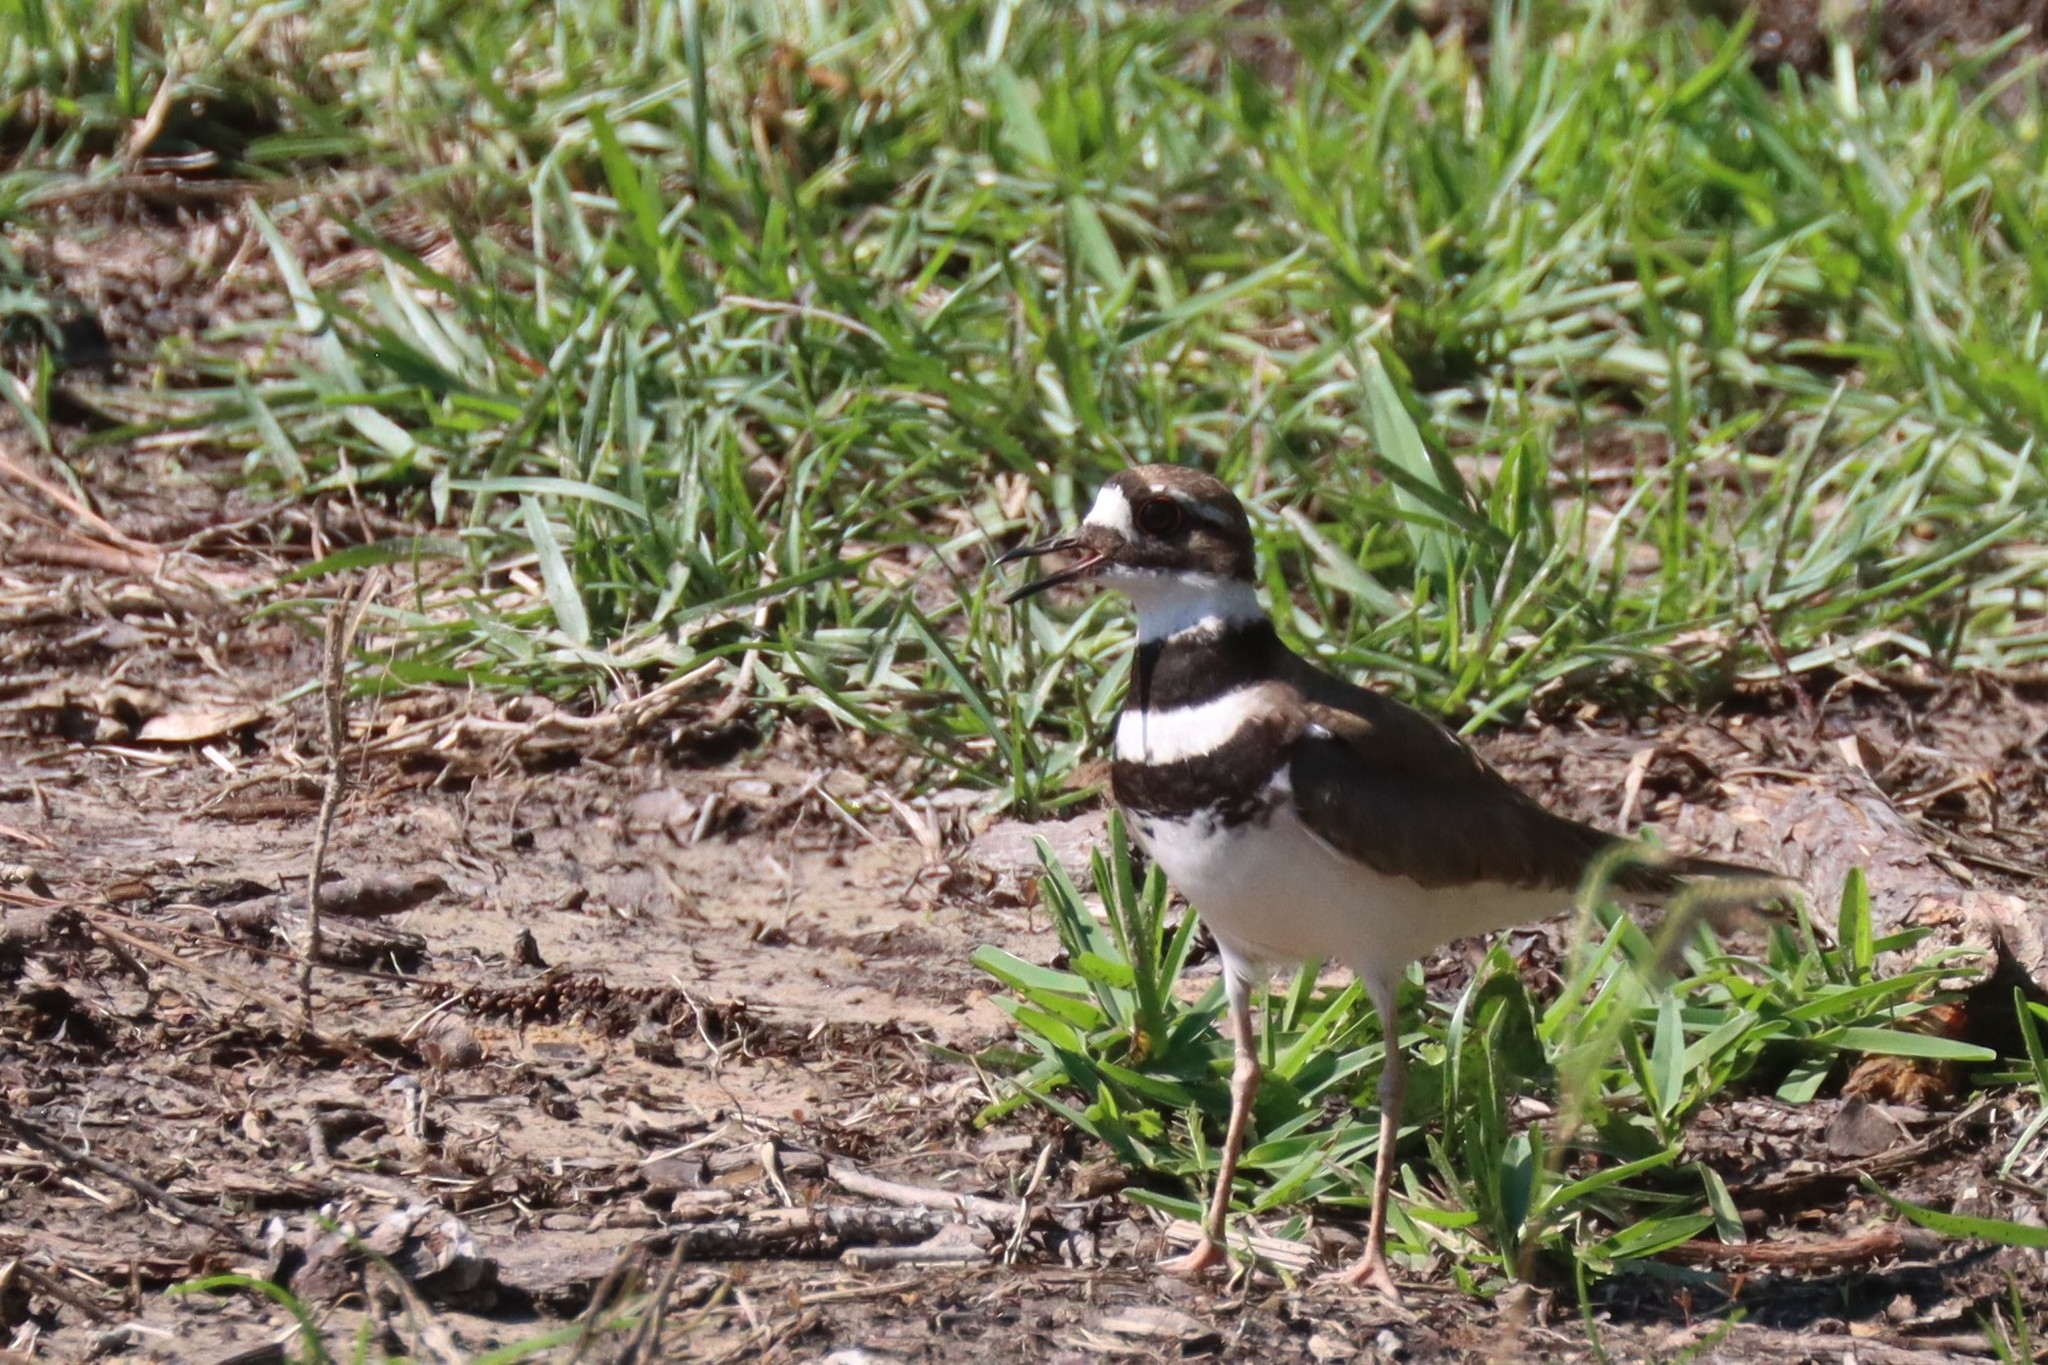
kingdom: Animalia
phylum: Chordata
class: Aves
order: Charadriiformes
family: Charadriidae
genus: Charadrius
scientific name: Charadrius vociferus
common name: Killdeer
